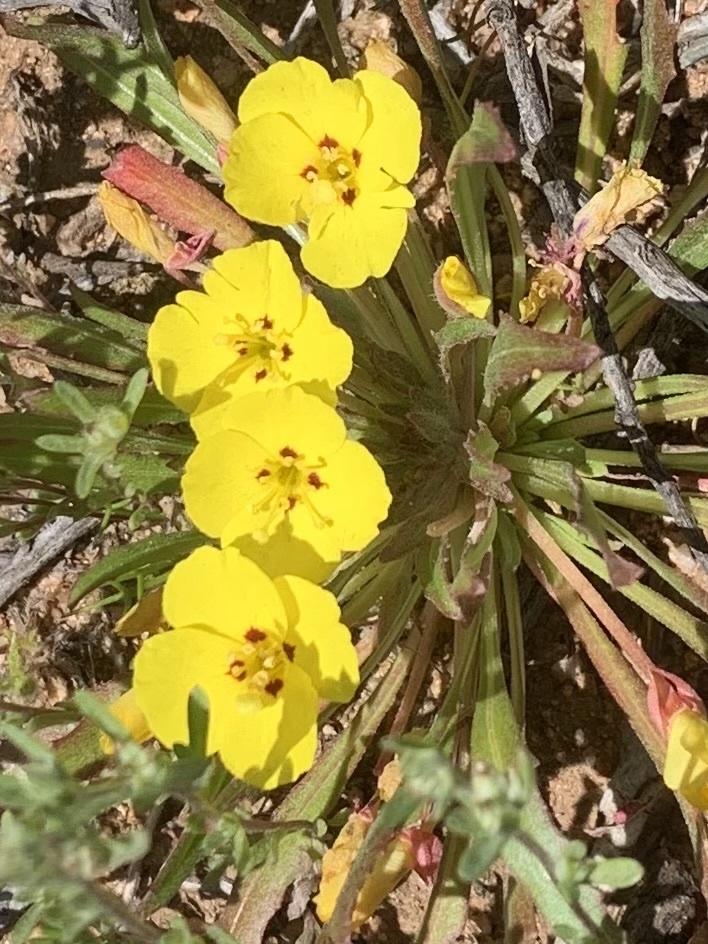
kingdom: Plantae
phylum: Tracheophyta
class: Magnoliopsida
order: Myrtales
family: Onagraceae
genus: Camissoniopsis
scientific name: Camissoniopsis bistorta
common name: Southern suncup
